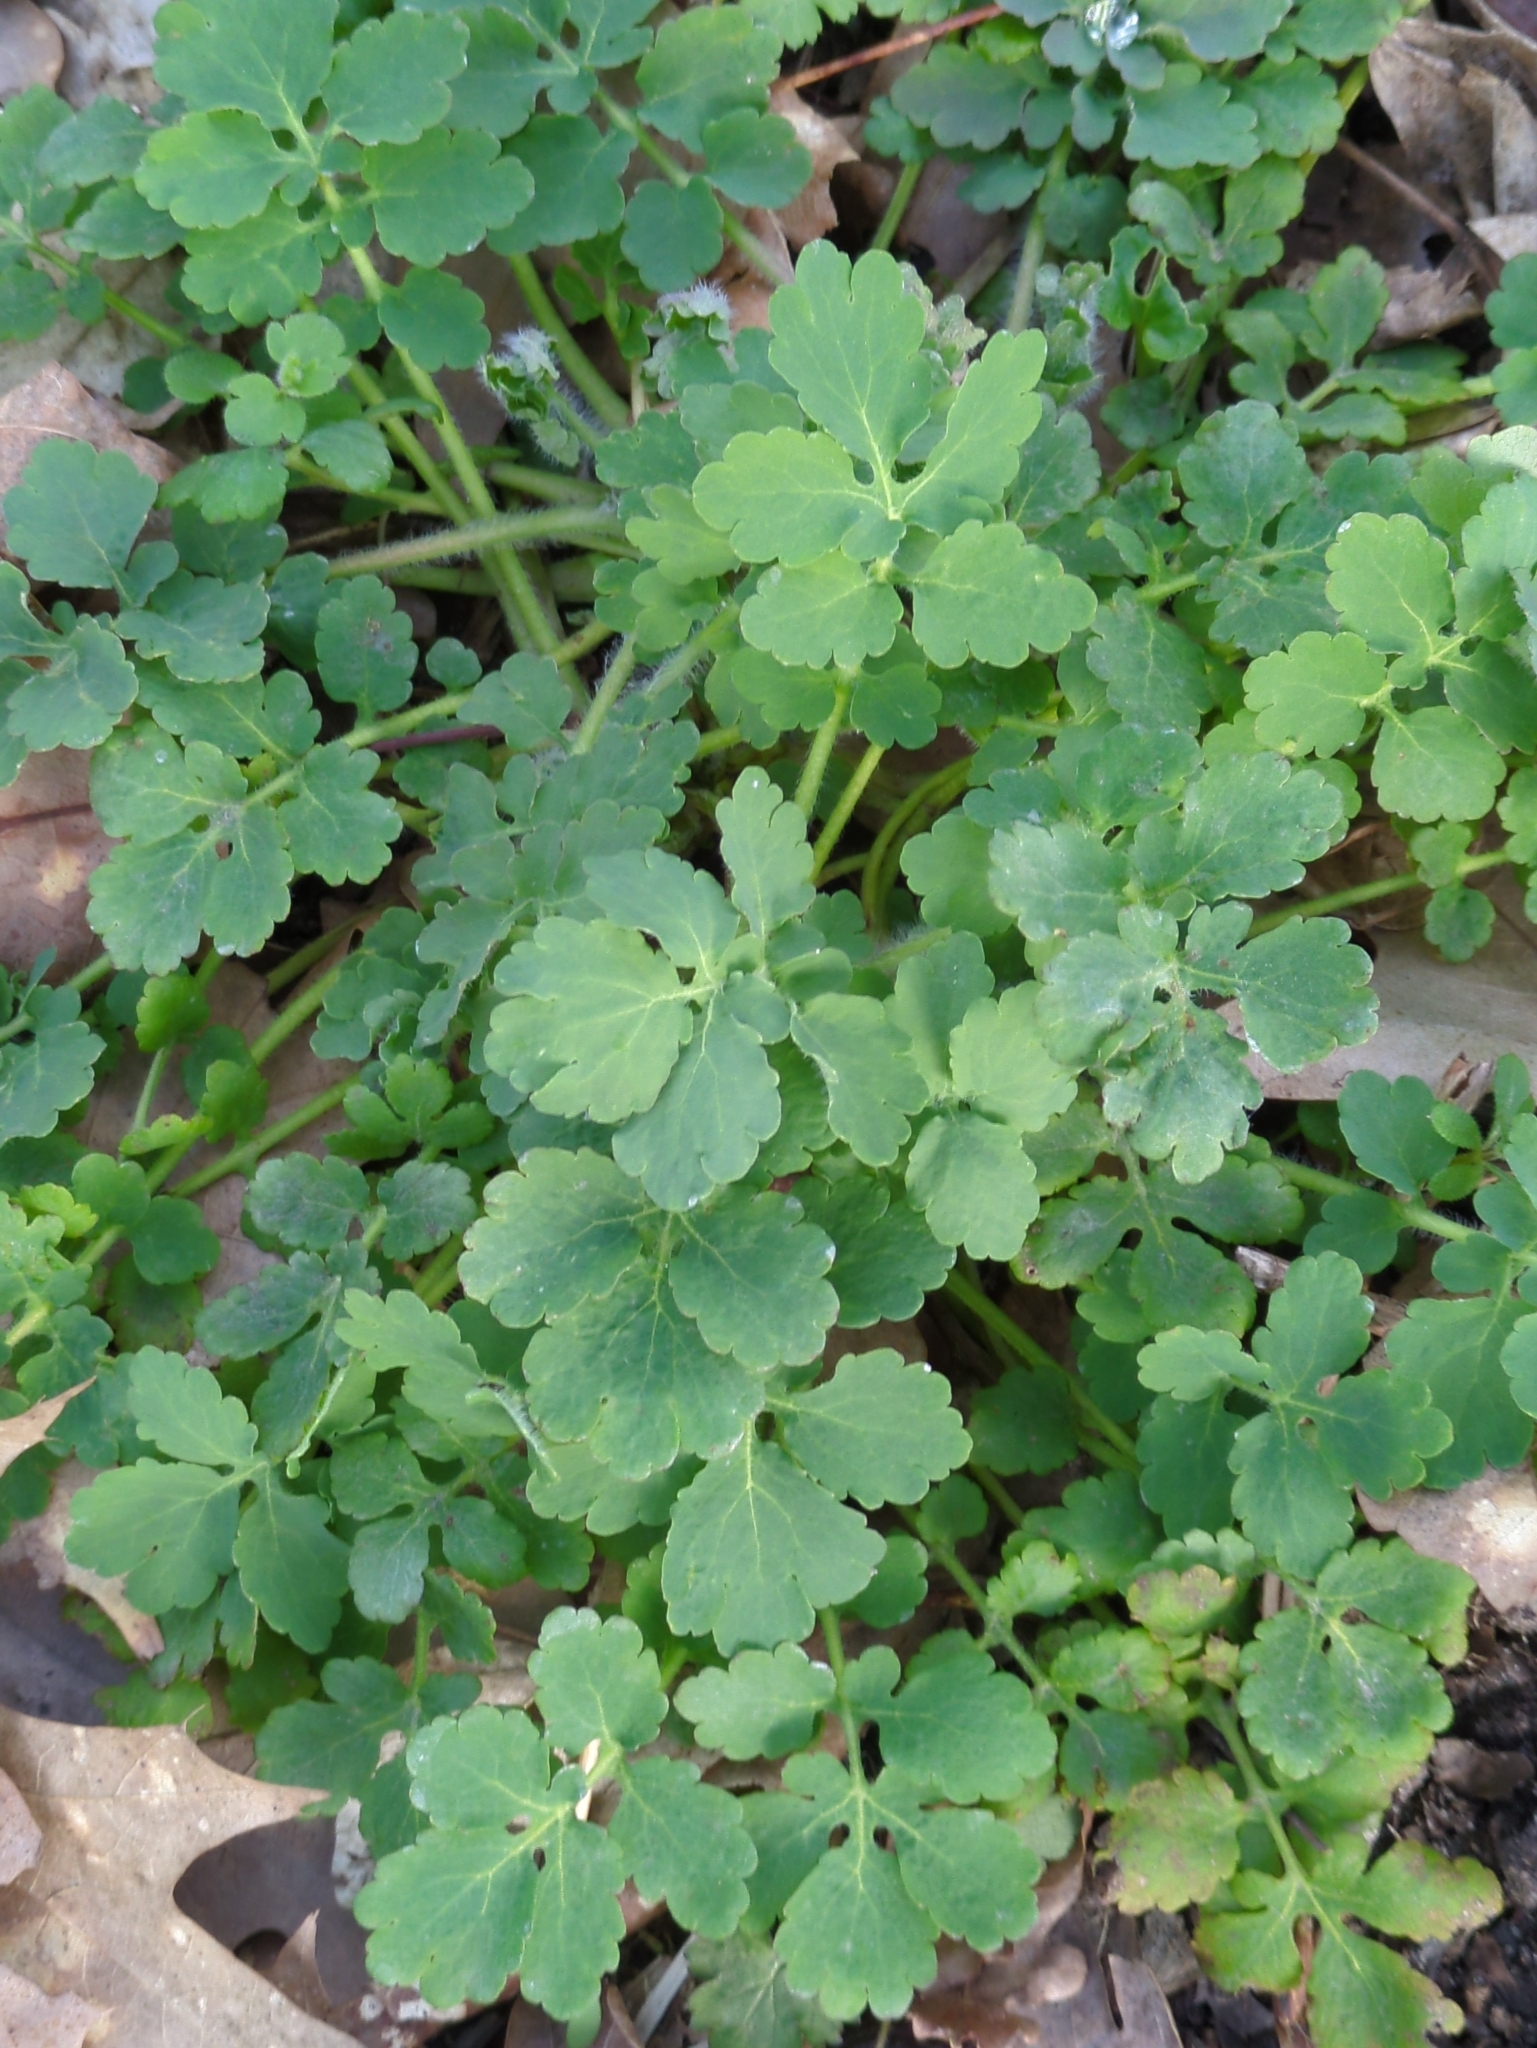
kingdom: Plantae
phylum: Tracheophyta
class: Magnoliopsida
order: Ranunculales
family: Papaveraceae
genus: Chelidonium
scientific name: Chelidonium majus
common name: Greater celandine
